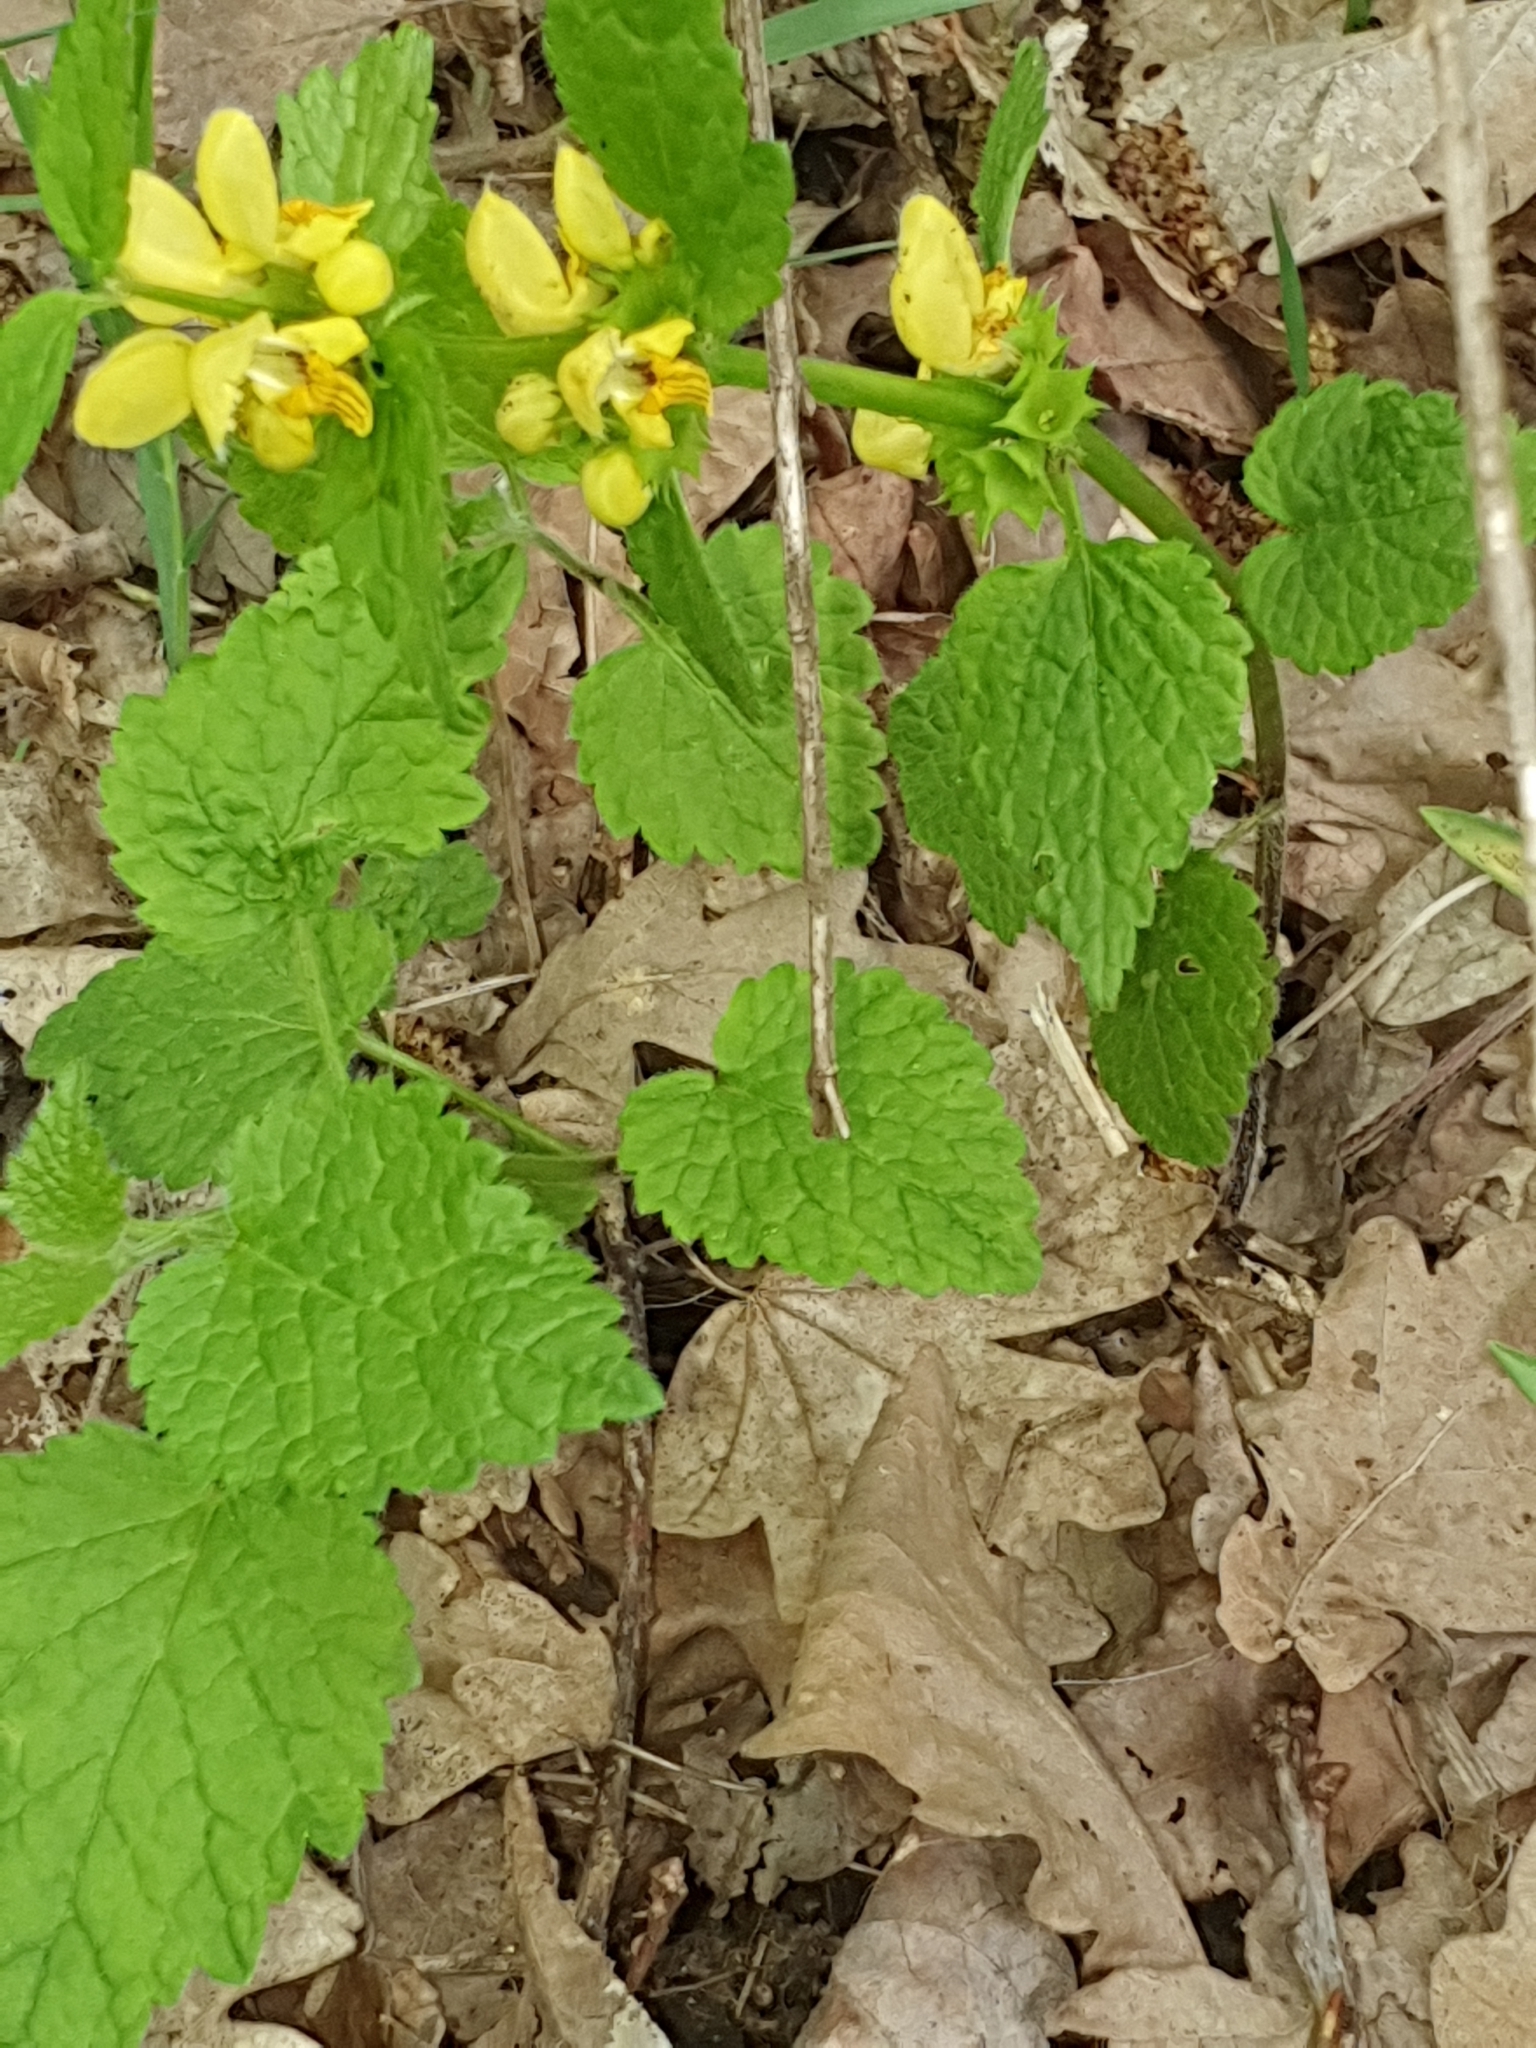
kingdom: Plantae
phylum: Tracheophyta
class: Magnoliopsida
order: Lamiales
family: Lamiaceae
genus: Lamium
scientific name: Lamium galeobdolon
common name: Yellow archangel
